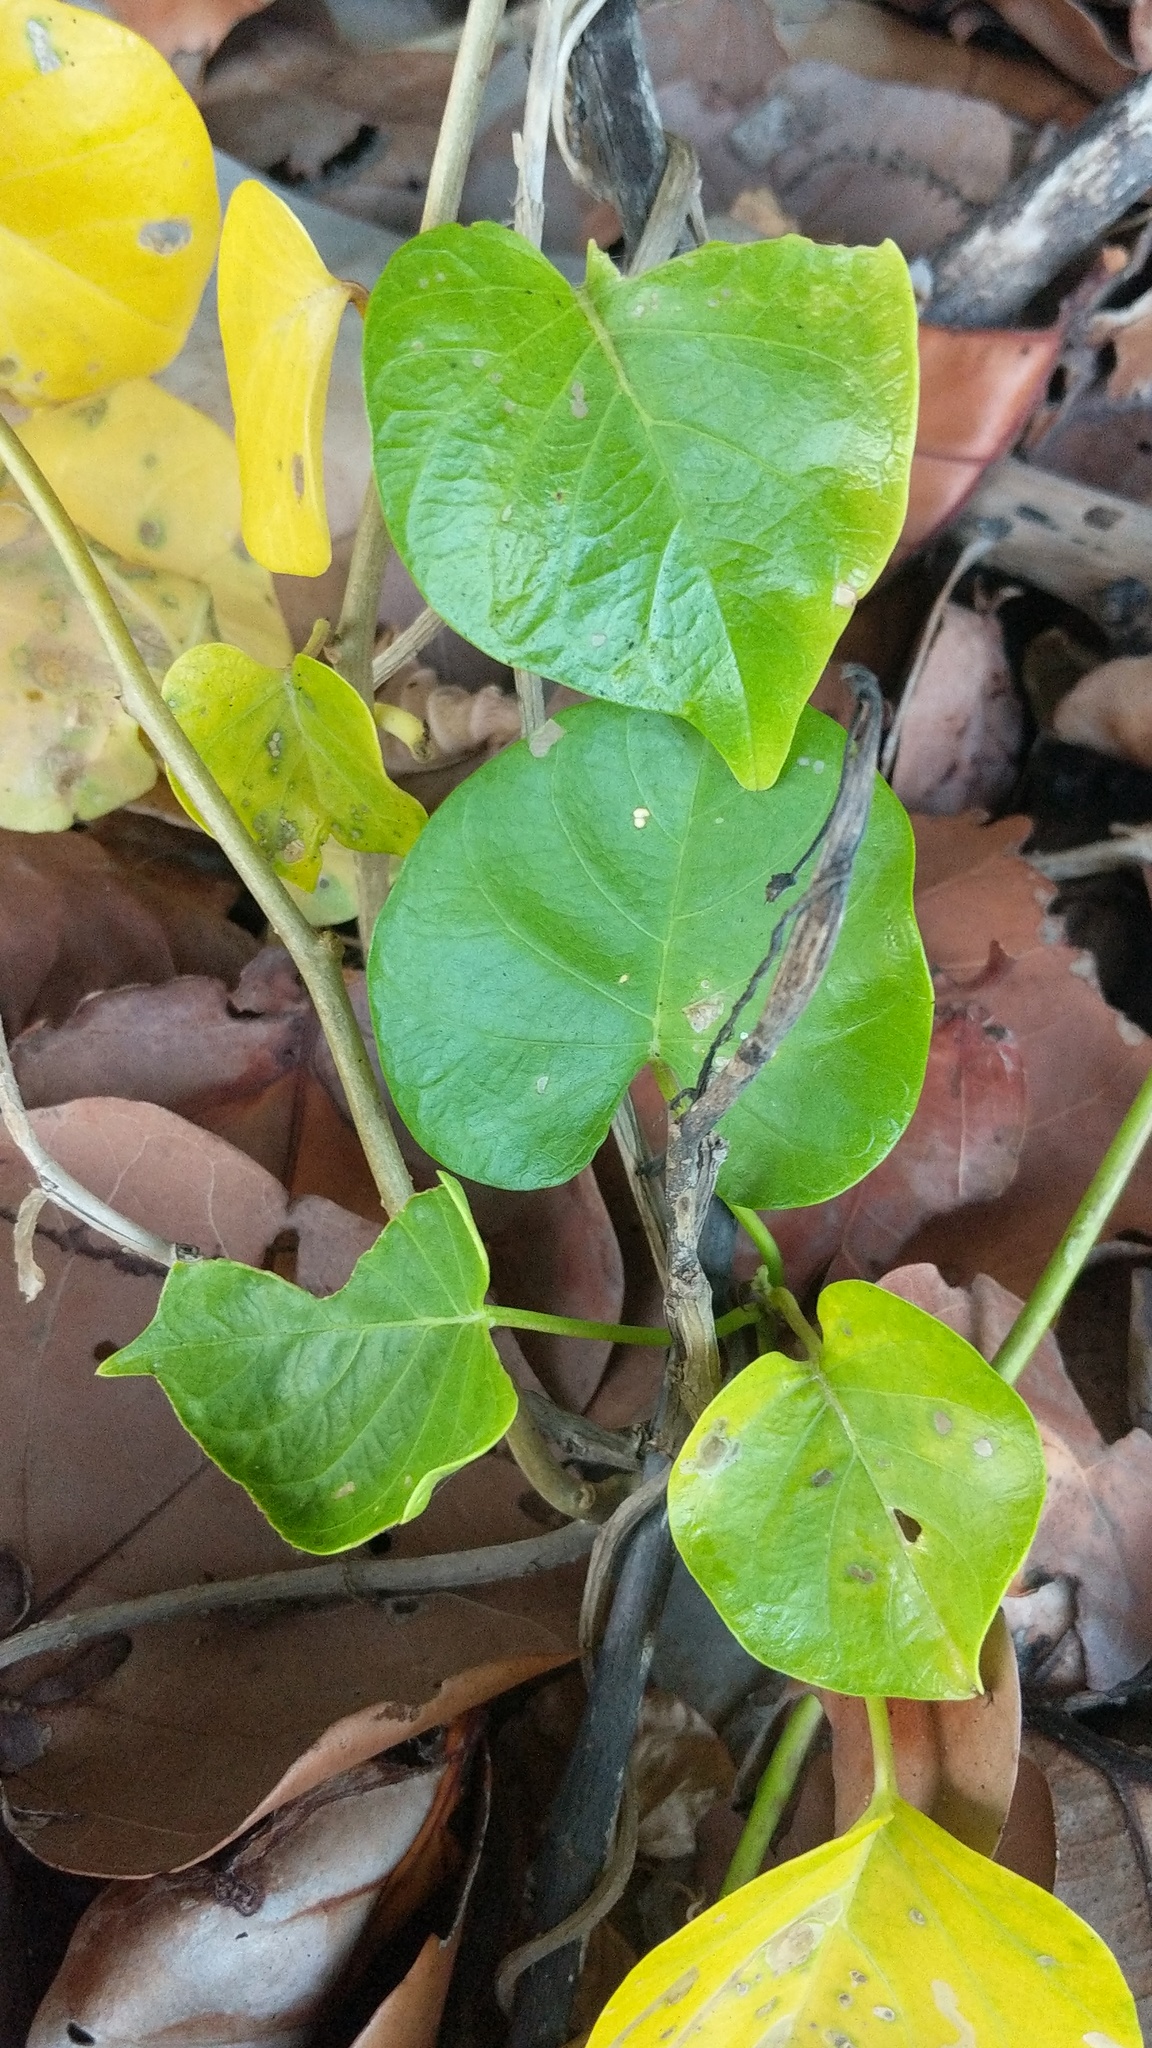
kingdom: Plantae
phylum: Tracheophyta
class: Magnoliopsida
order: Solanales
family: Convolvulaceae
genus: Ipomoea
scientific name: Ipomoea violacea
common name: Beach moonflower
